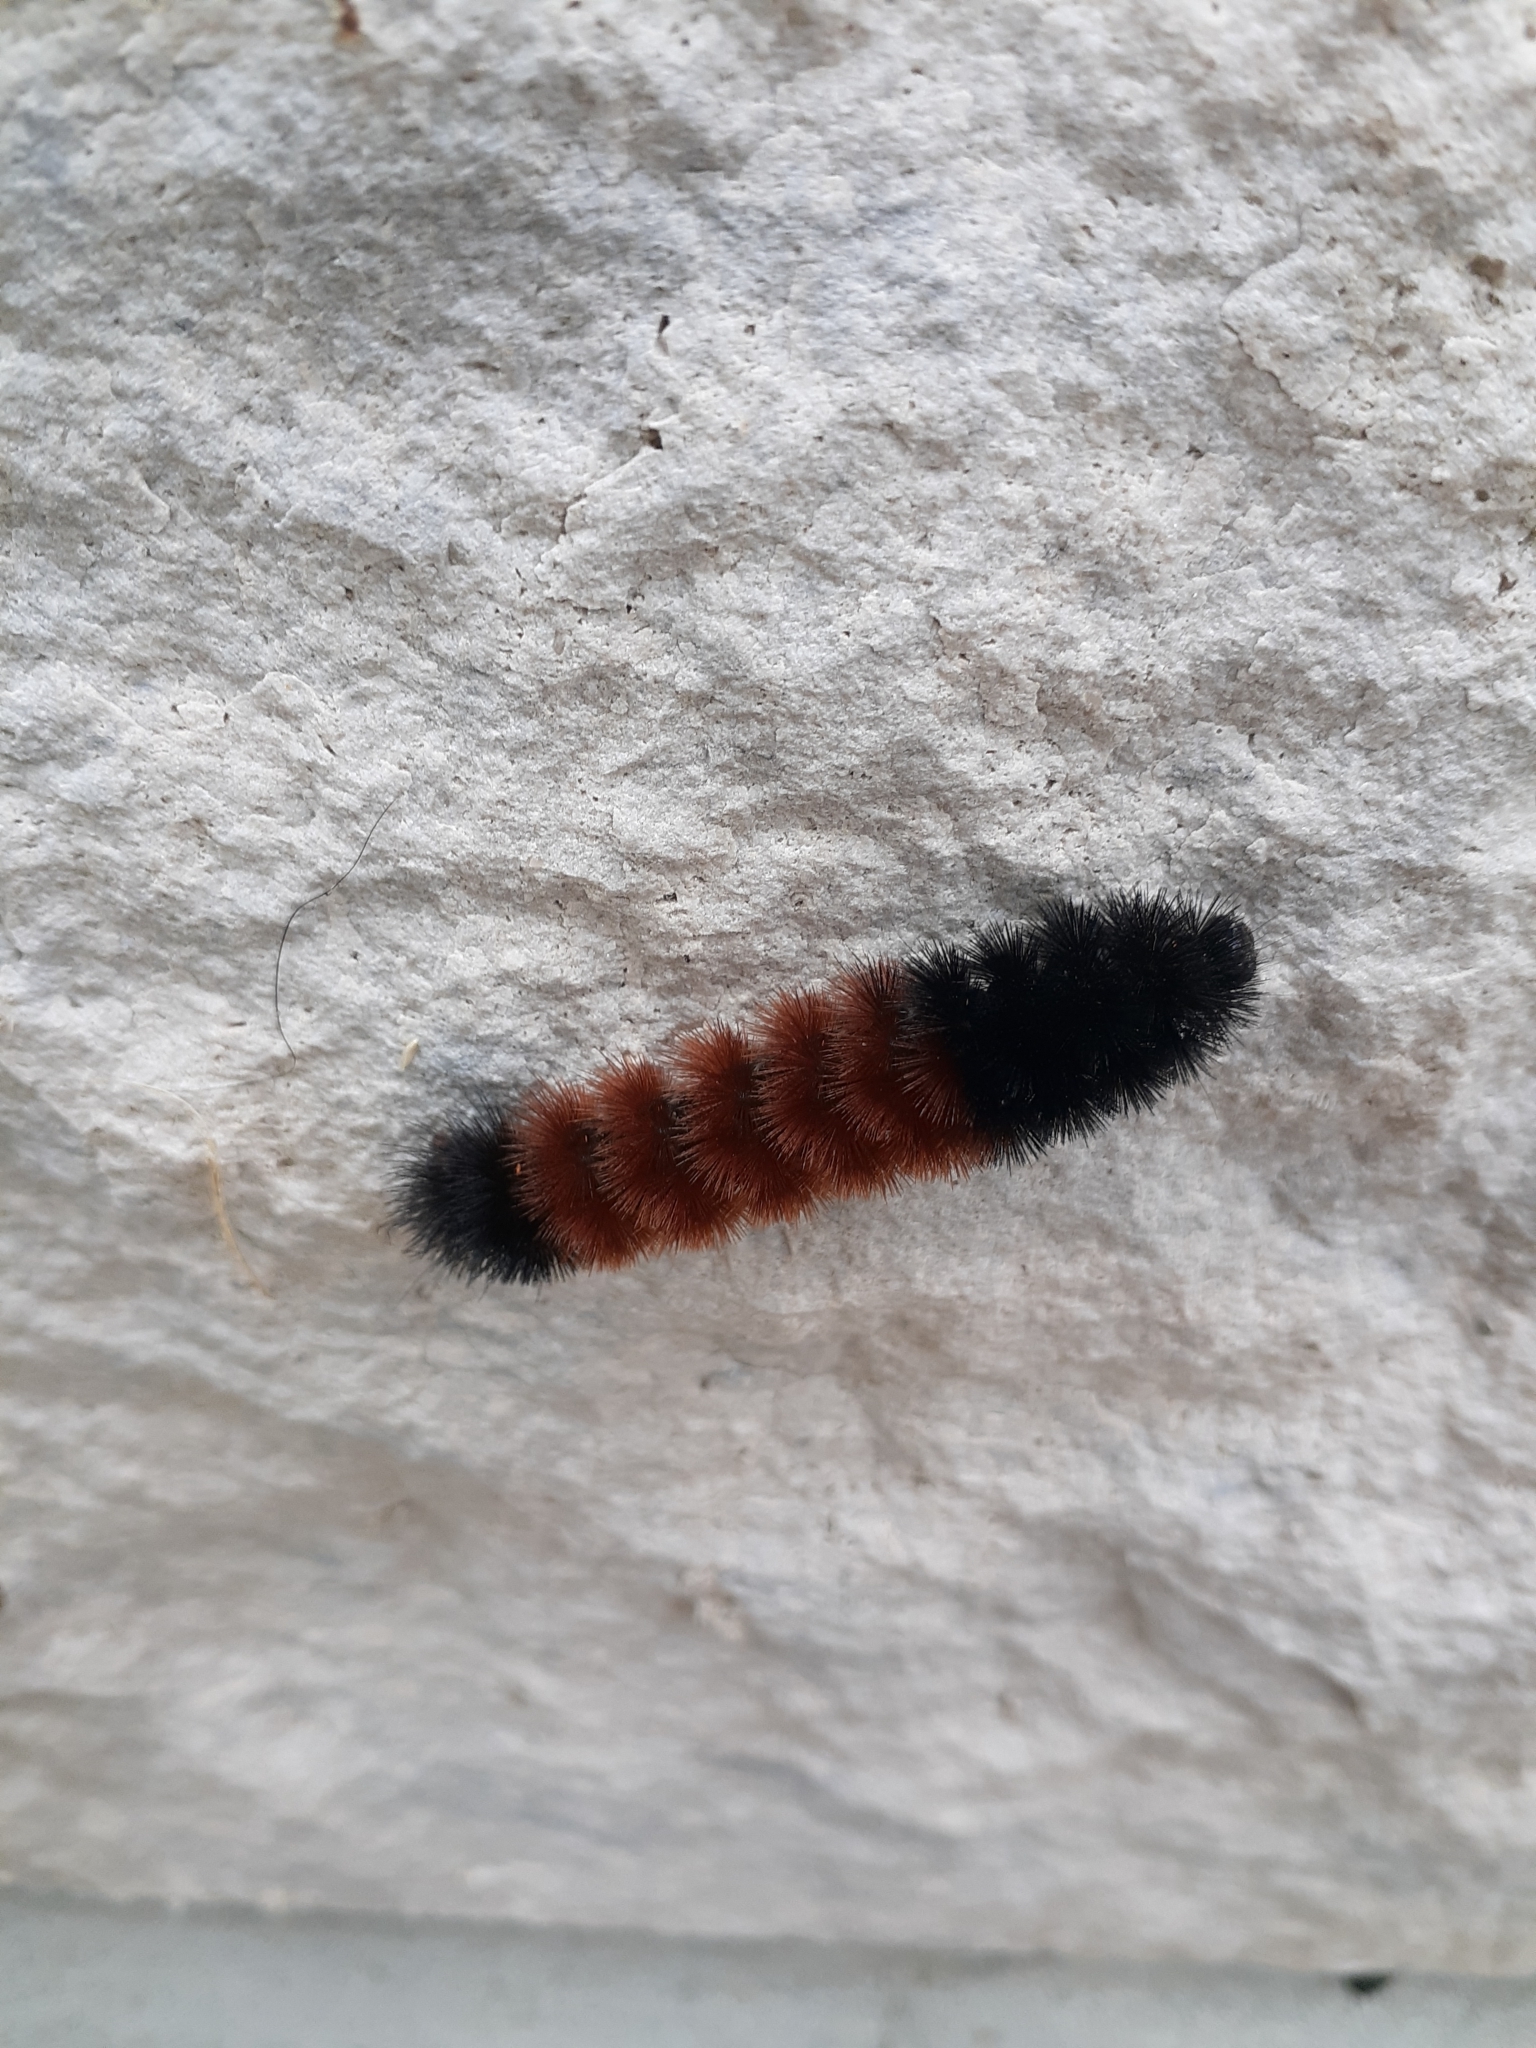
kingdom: Animalia
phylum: Arthropoda
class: Insecta
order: Lepidoptera
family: Erebidae
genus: Pyrrharctia
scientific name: Pyrrharctia isabella
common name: Isabella tiger moth
